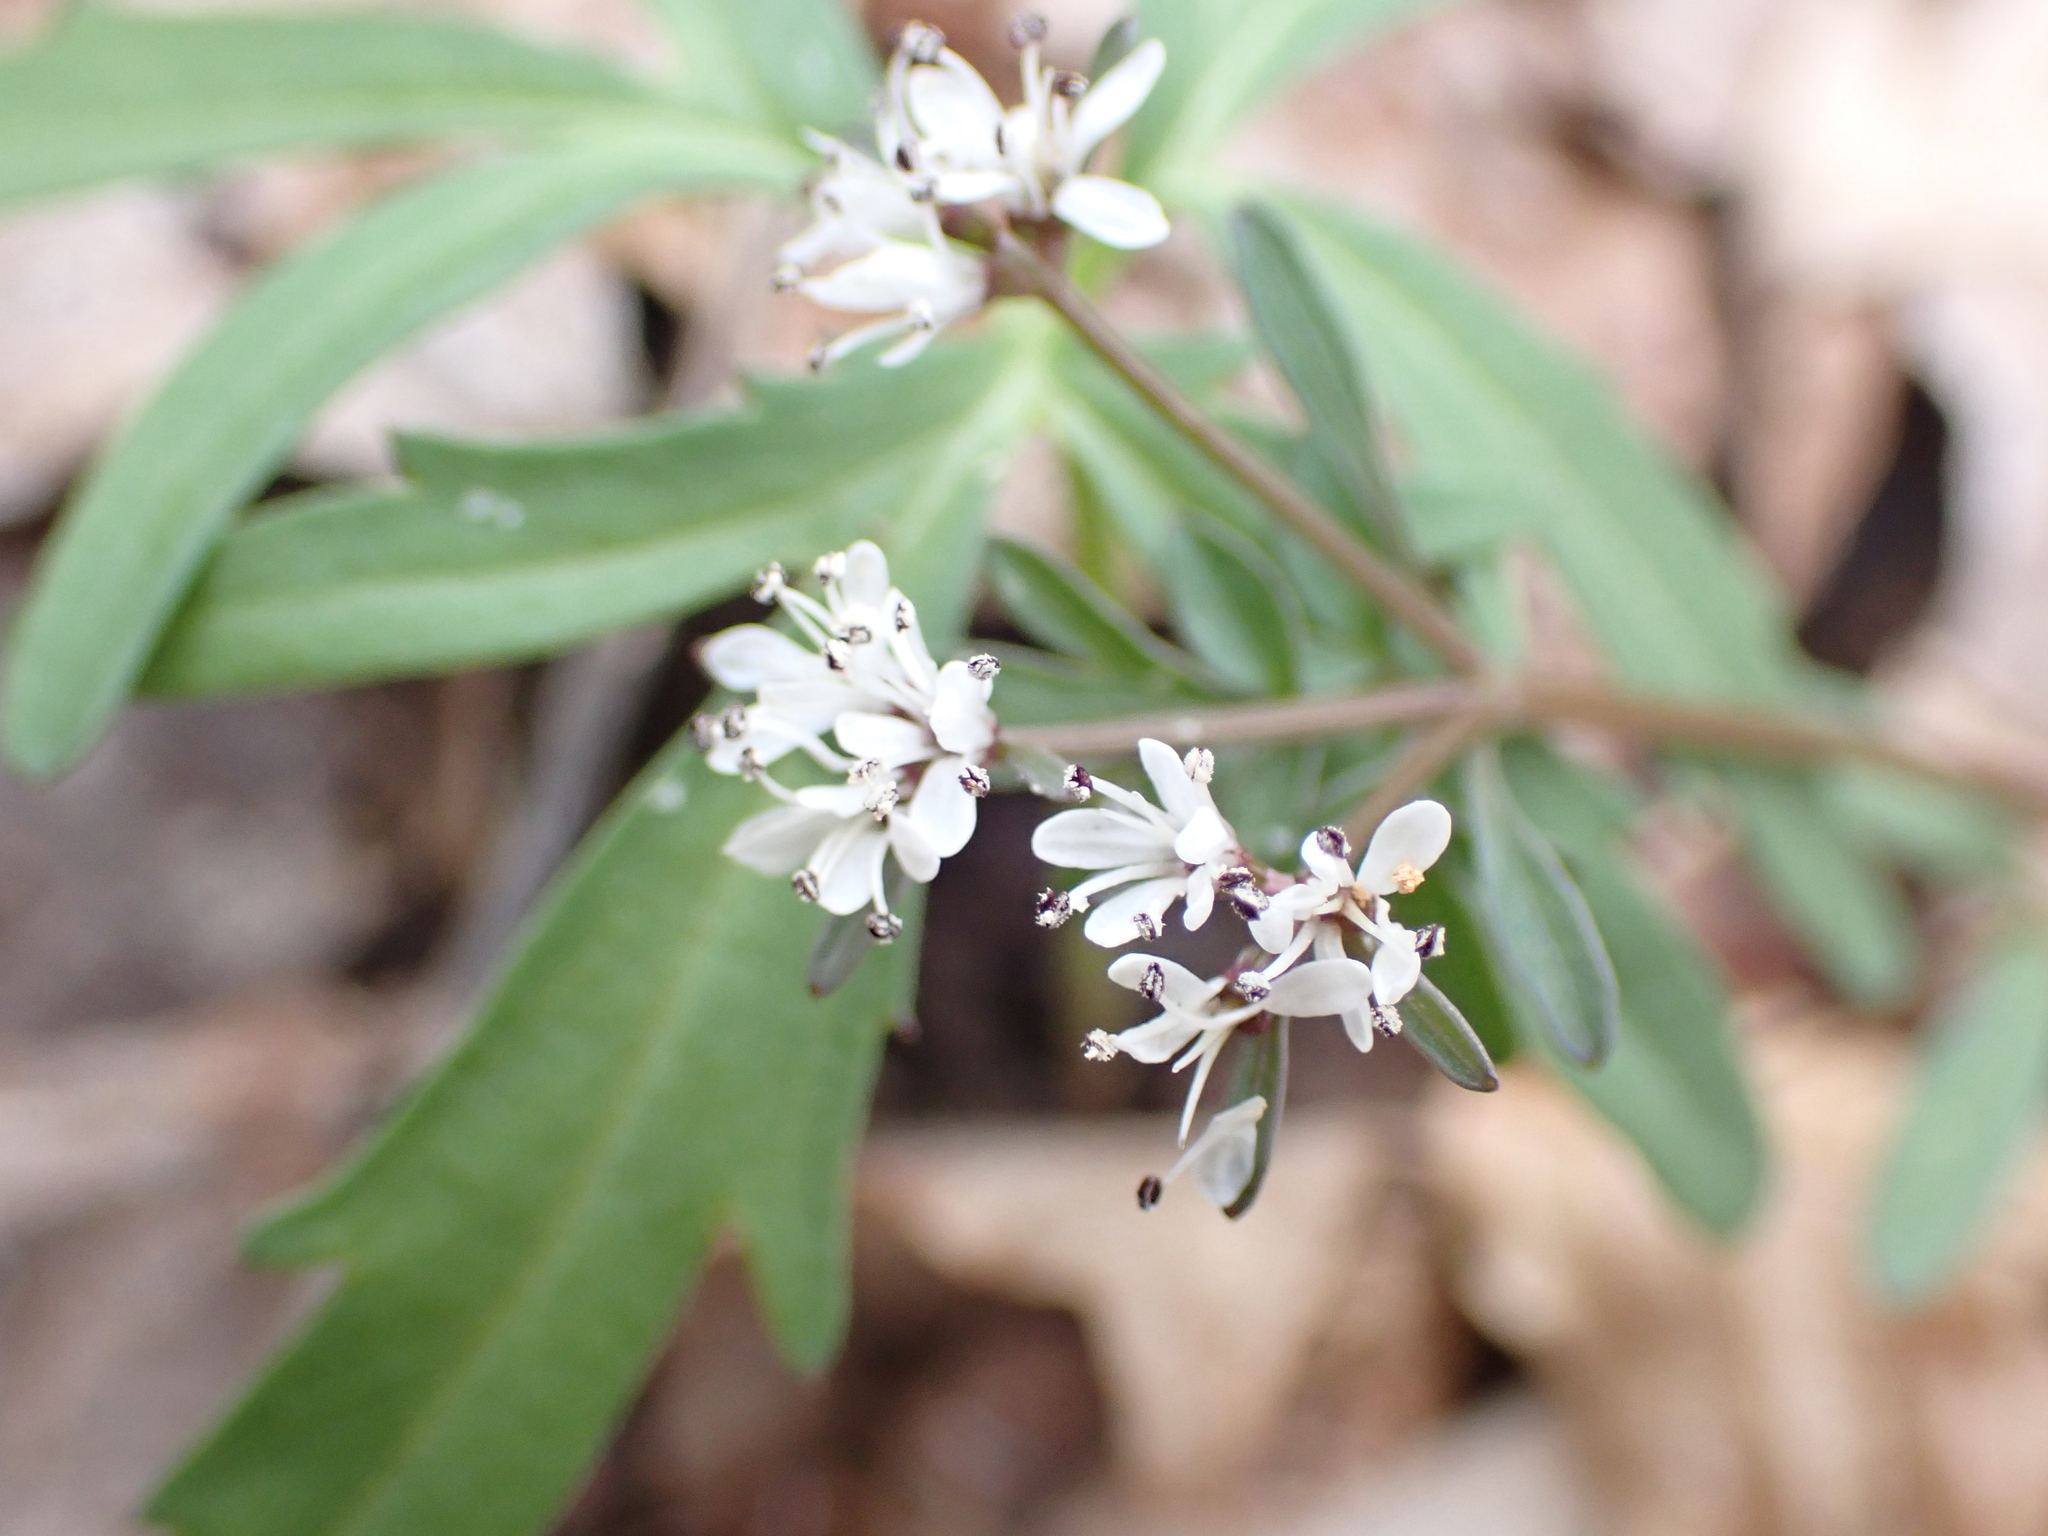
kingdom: Plantae
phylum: Tracheophyta
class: Magnoliopsida
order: Apiales
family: Apiaceae
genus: Erigenia
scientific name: Erigenia bulbosa
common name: Pepper-and-salt
